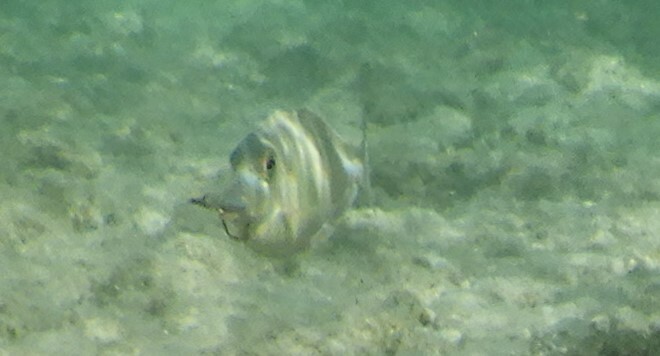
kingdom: Animalia
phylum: Chordata
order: Perciformes
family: Acanthuridae
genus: Naso
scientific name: Naso unicornis
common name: Bluespine unicornfish
